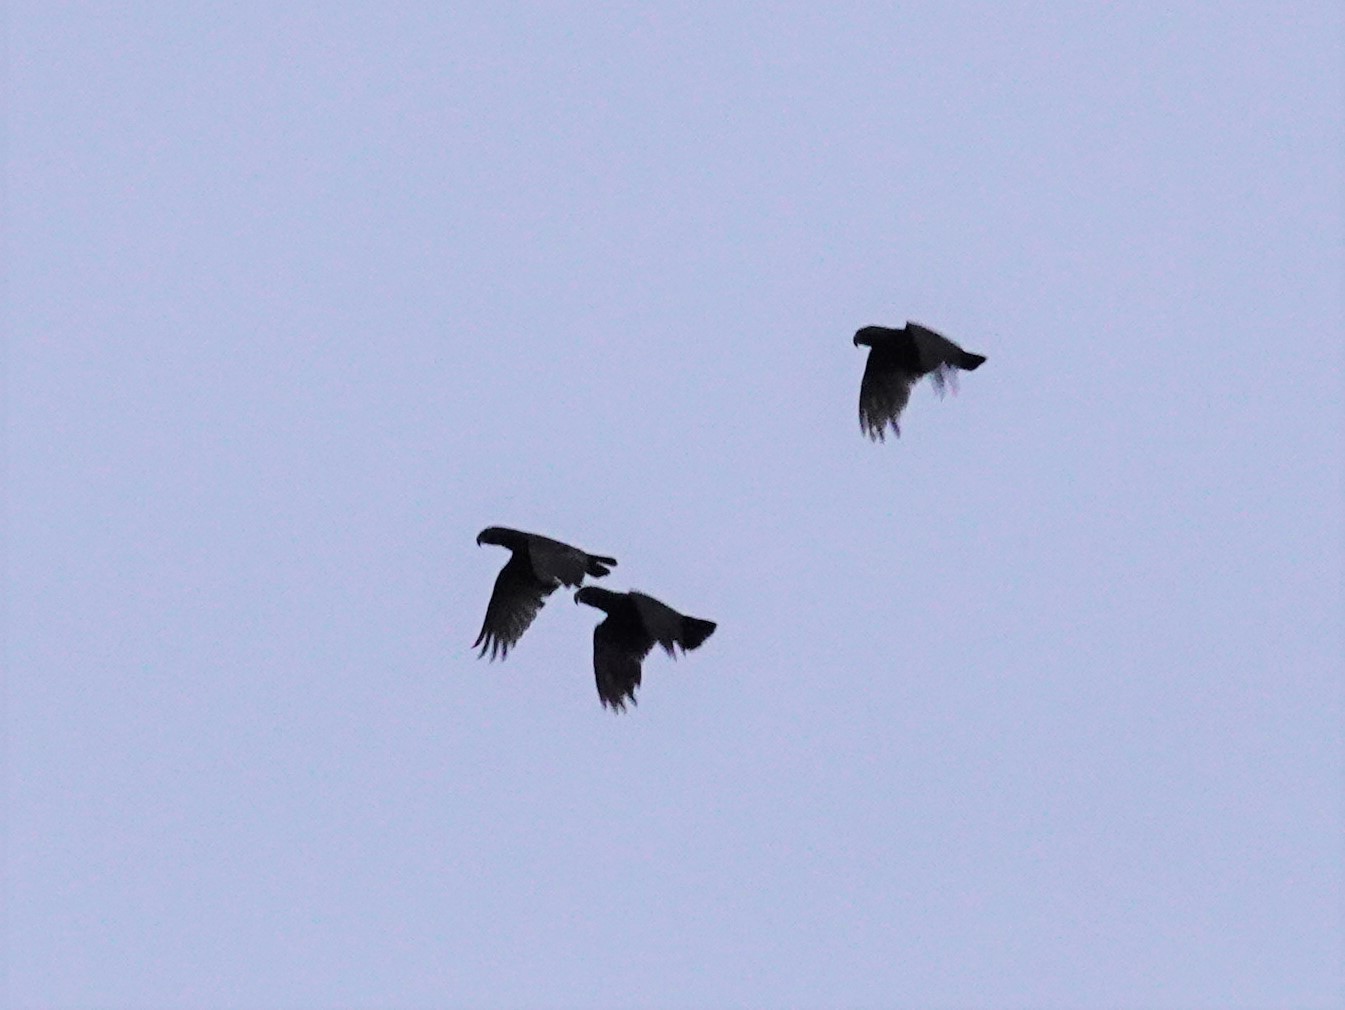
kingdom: Animalia
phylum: Chordata
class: Aves
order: Psittaciformes
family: Psittacidae
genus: Nestor
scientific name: Nestor meridionalis
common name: New zealand kaka
